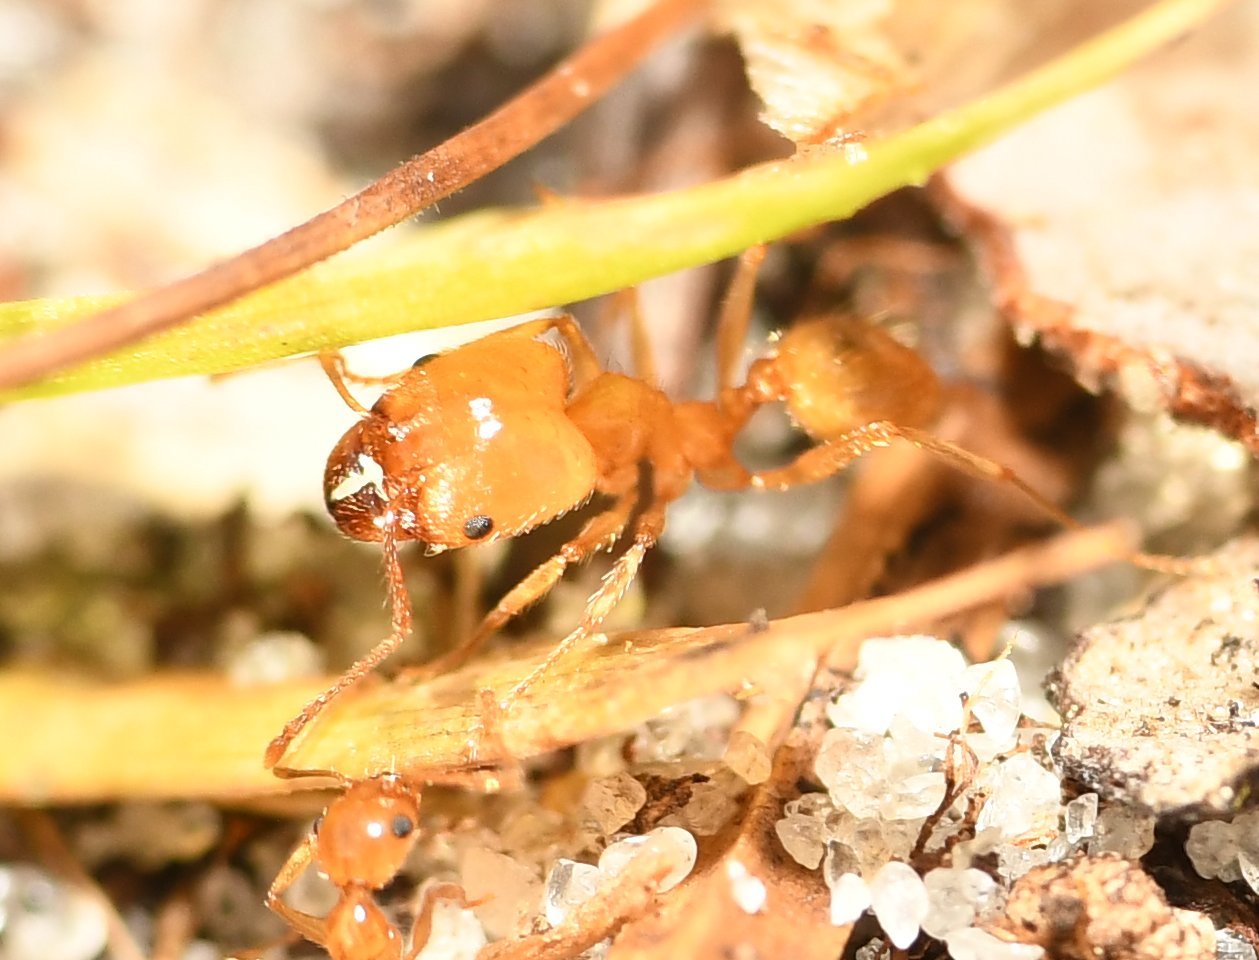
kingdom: Animalia
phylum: Arthropoda
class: Insecta
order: Hymenoptera
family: Formicidae
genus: Pheidole
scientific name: Pheidole morrisii
